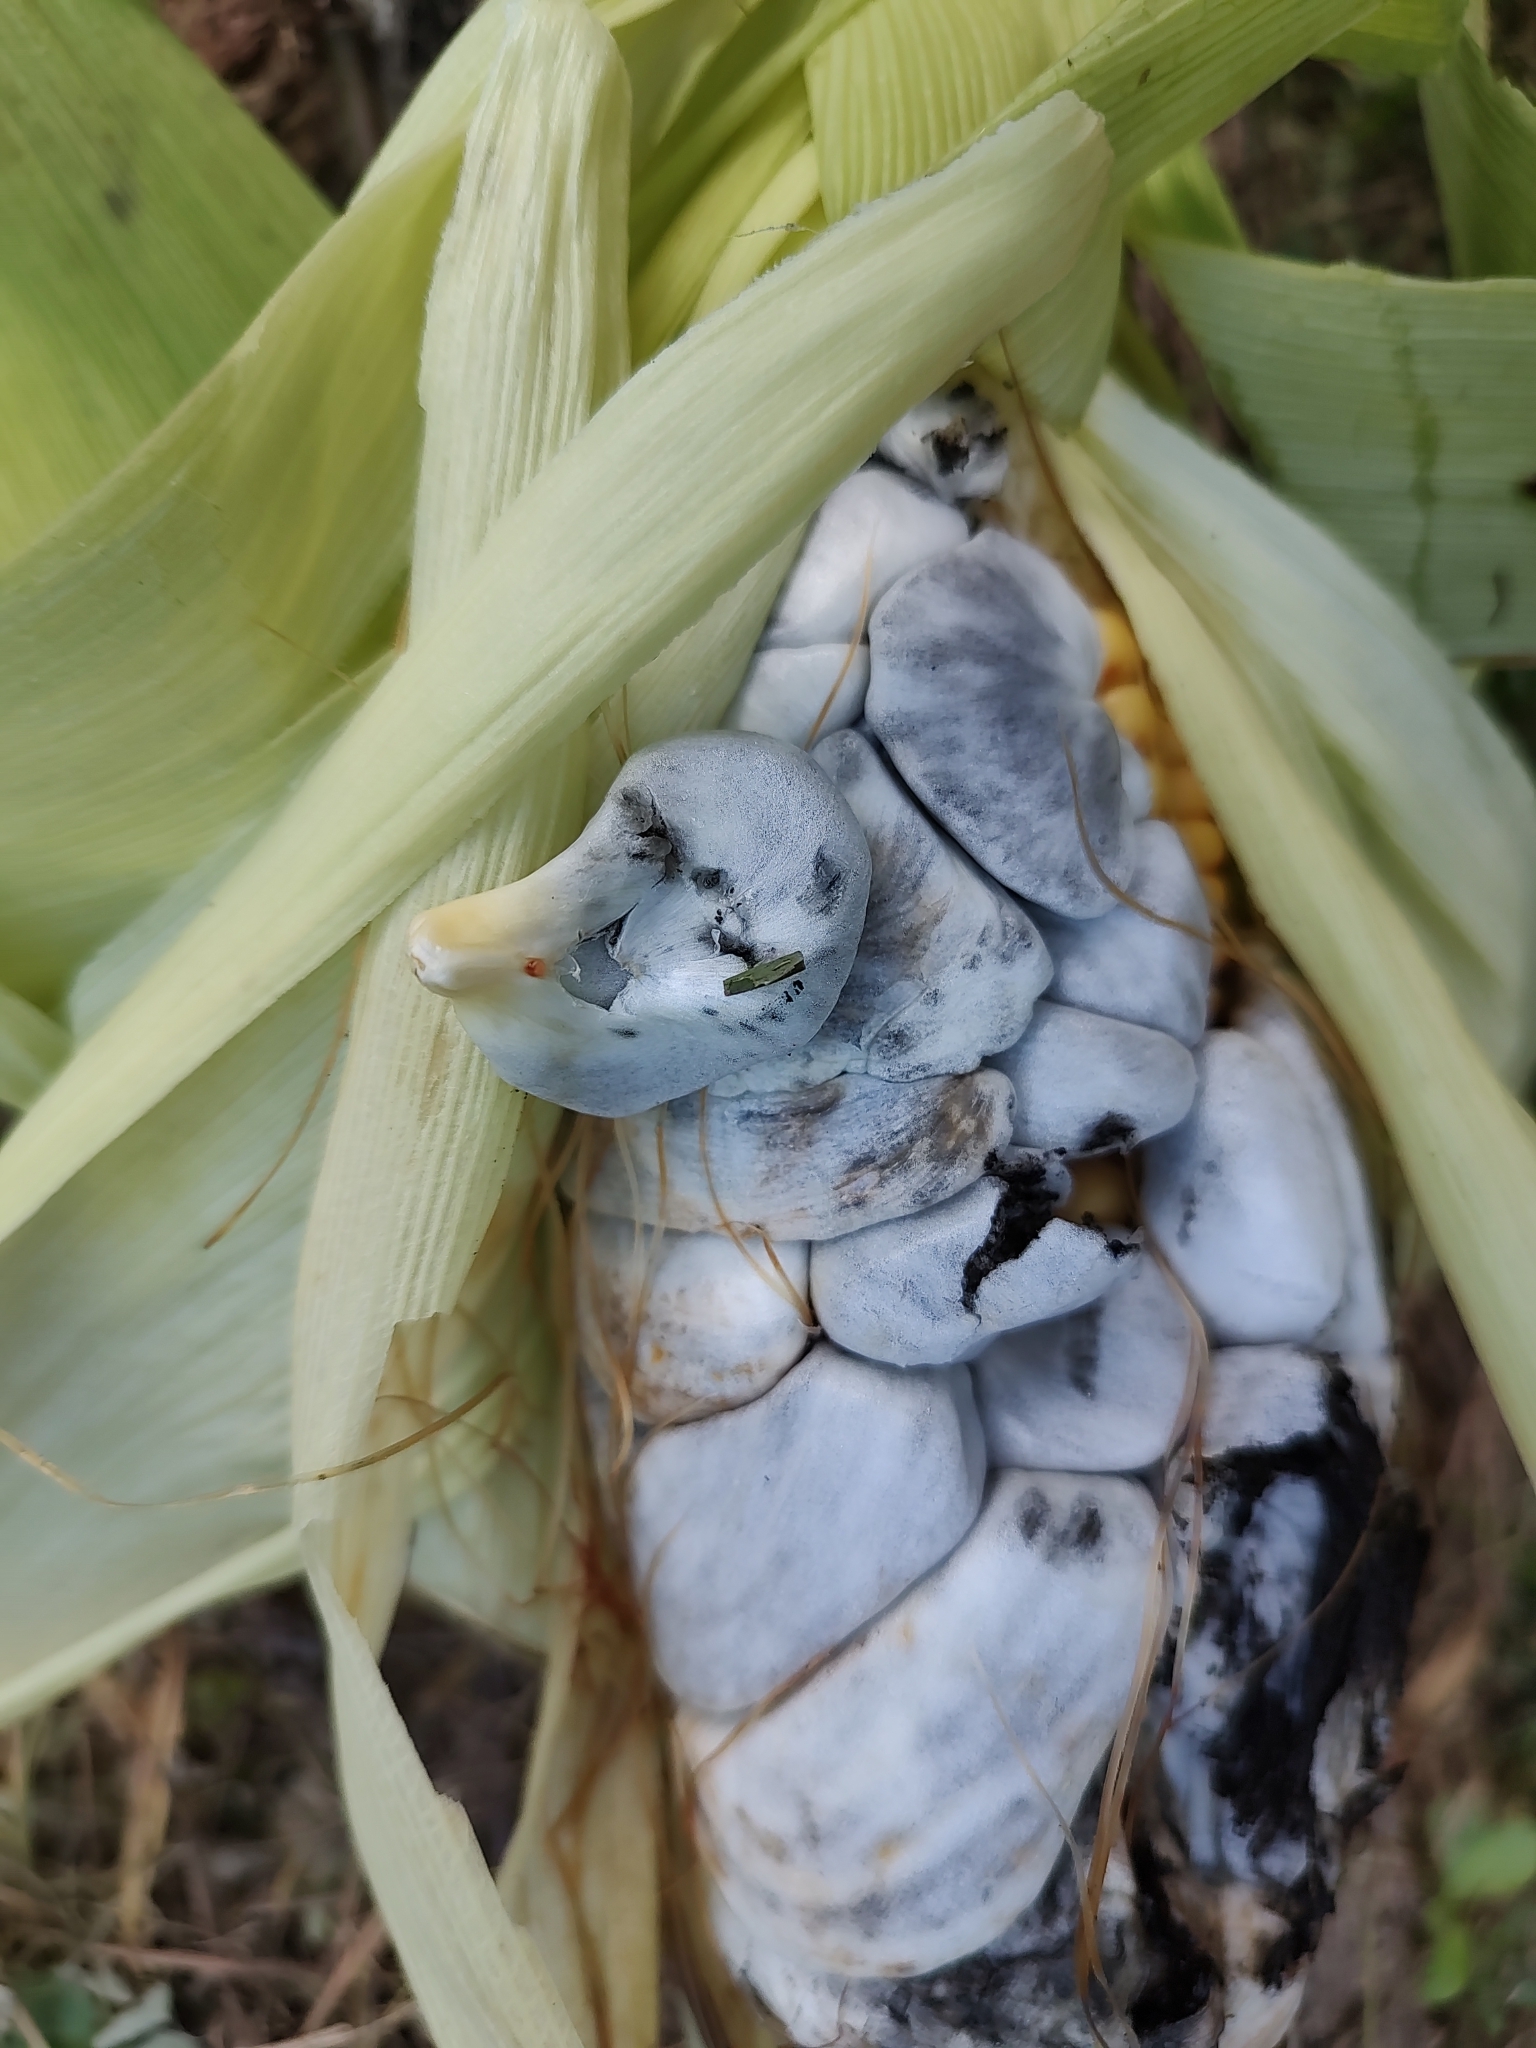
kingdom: Fungi
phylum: Basidiomycota
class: Ustilaginomycetes
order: Ustilaginales
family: Ustilaginaceae
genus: Mycosarcoma
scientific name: Mycosarcoma maydis
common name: Corn smut
